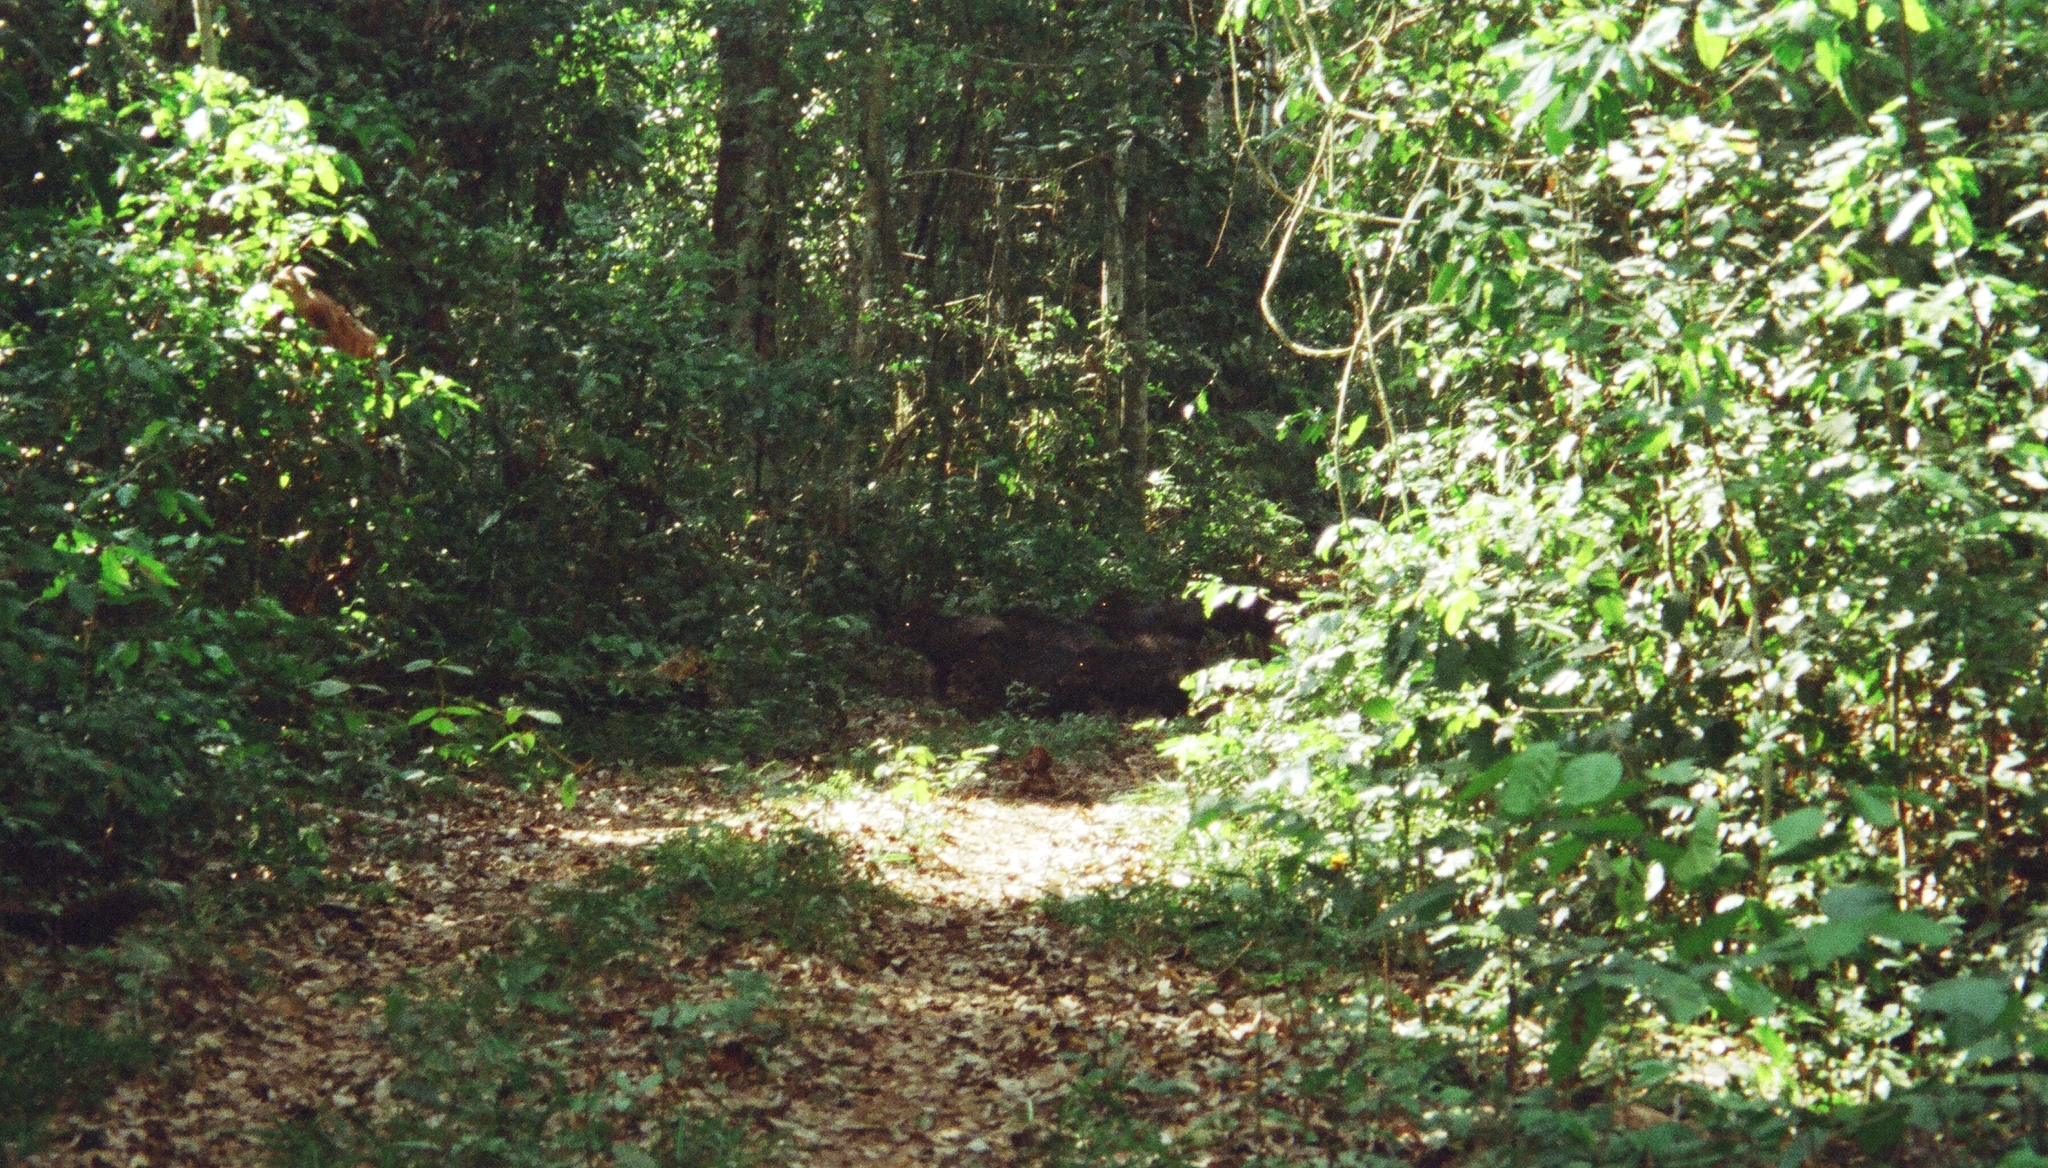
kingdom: Animalia
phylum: Chordata
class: Mammalia
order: Artiodactyla
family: Tayassuidae
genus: Tayassu
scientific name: Tayassu pecari
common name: White-lipped peccary
